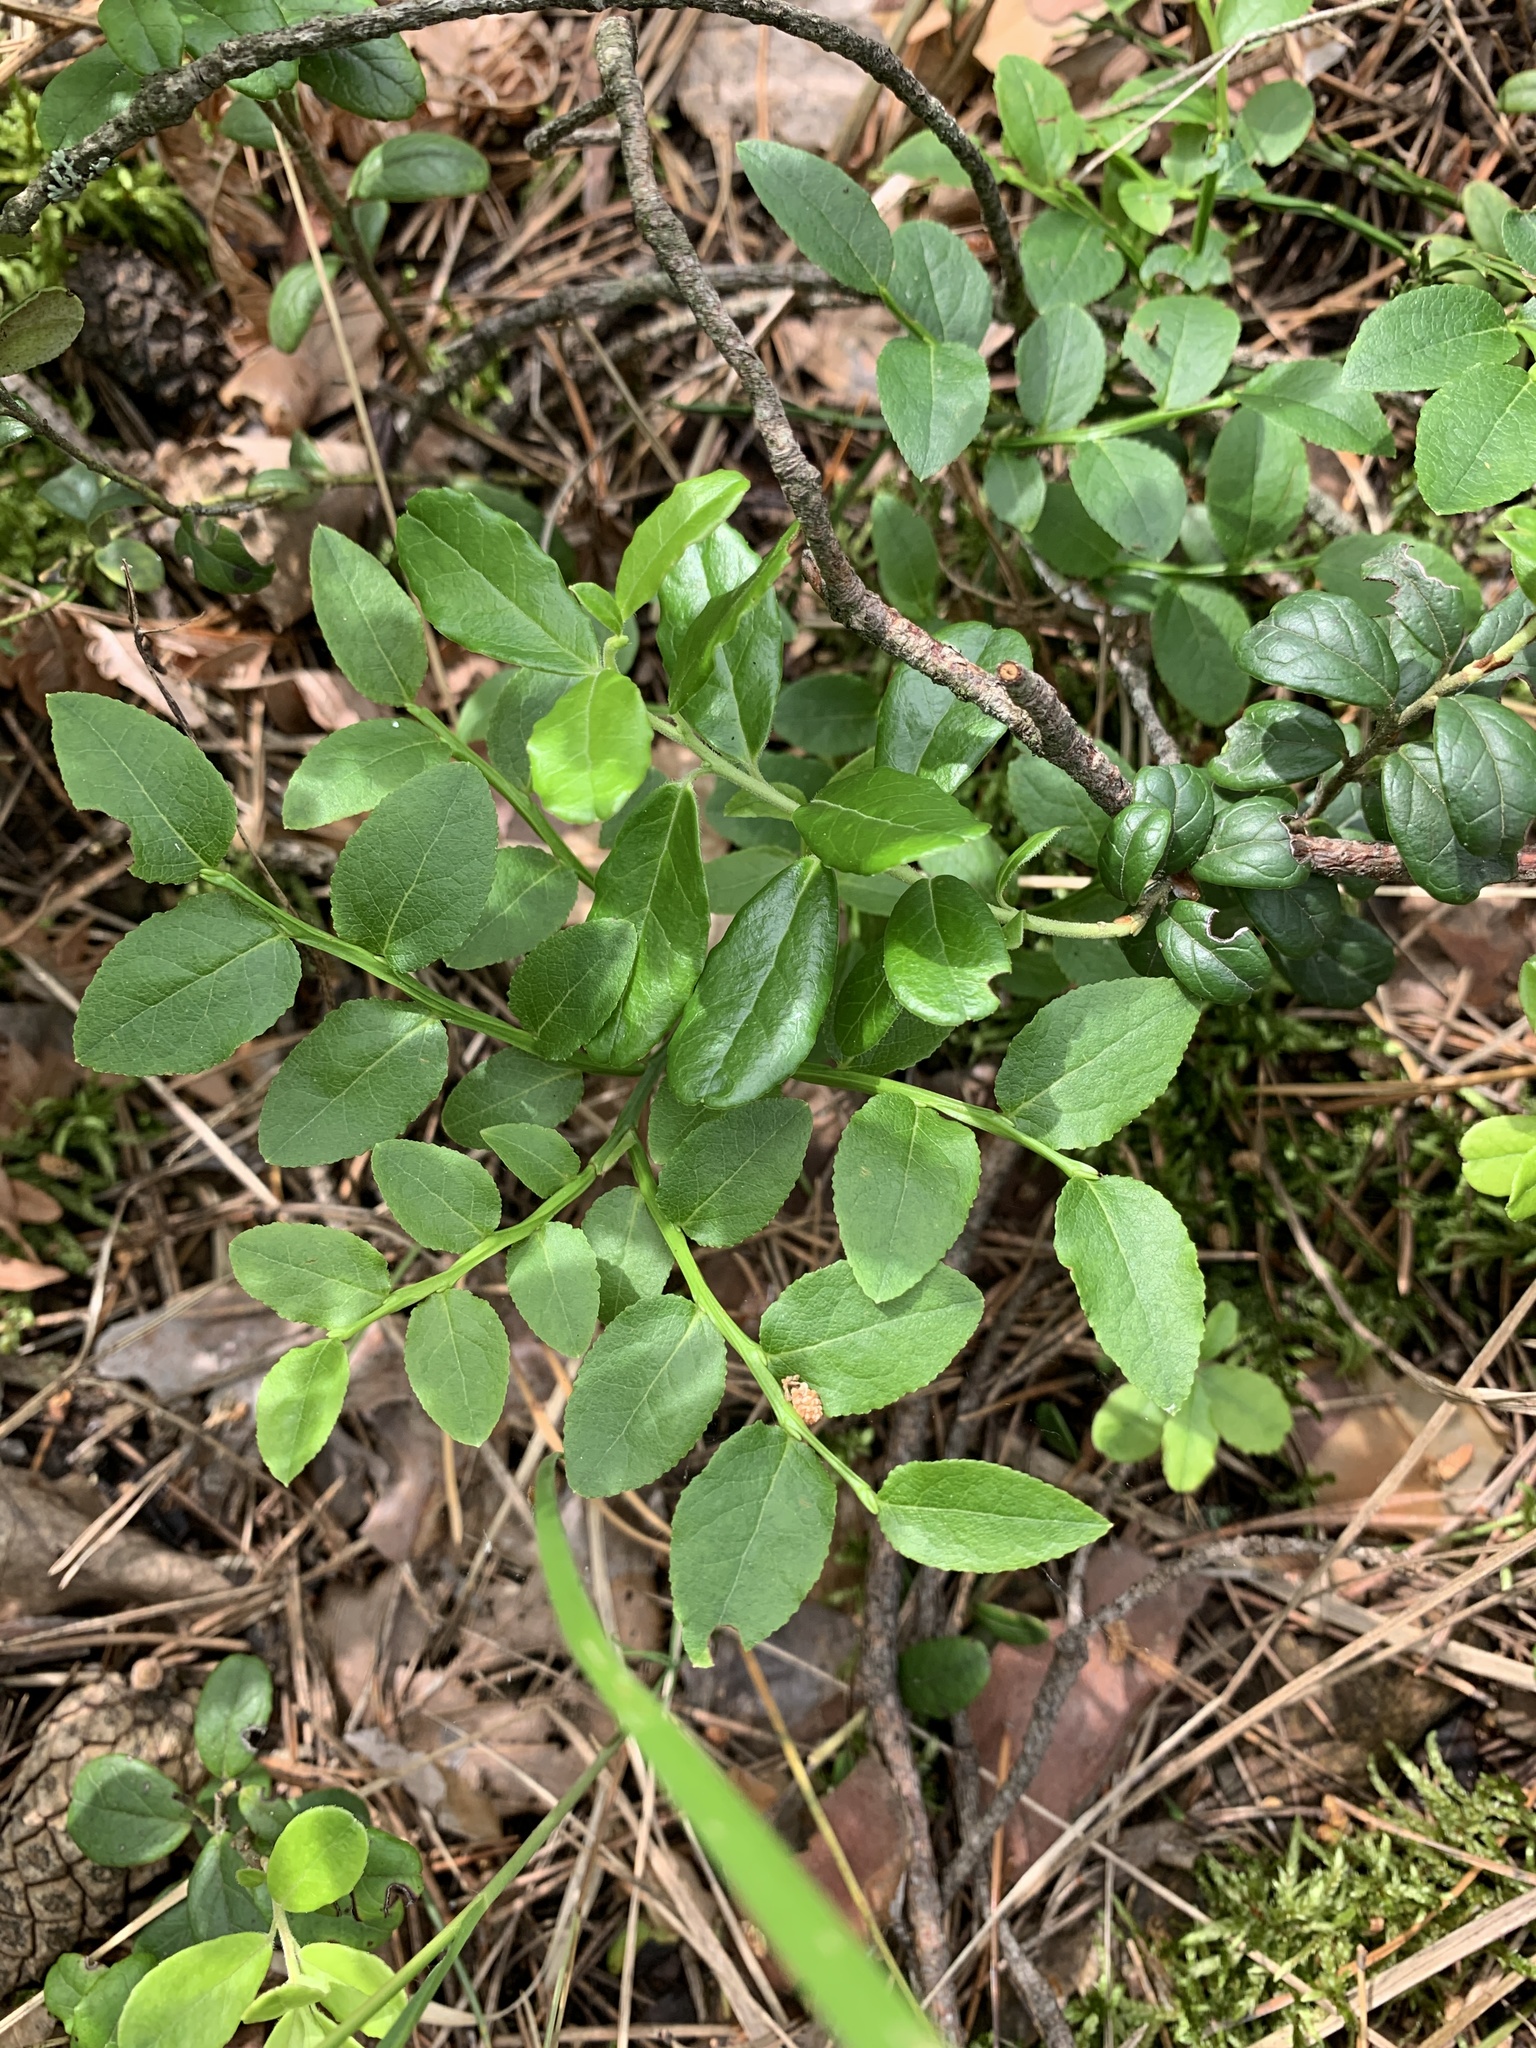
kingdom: Plantae
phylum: Tracheophyta
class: Magnoliopsida
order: Ericales
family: Ericaceae
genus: Vaccinium
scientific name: Vaccinium vitis-idaea
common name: Cowberry
